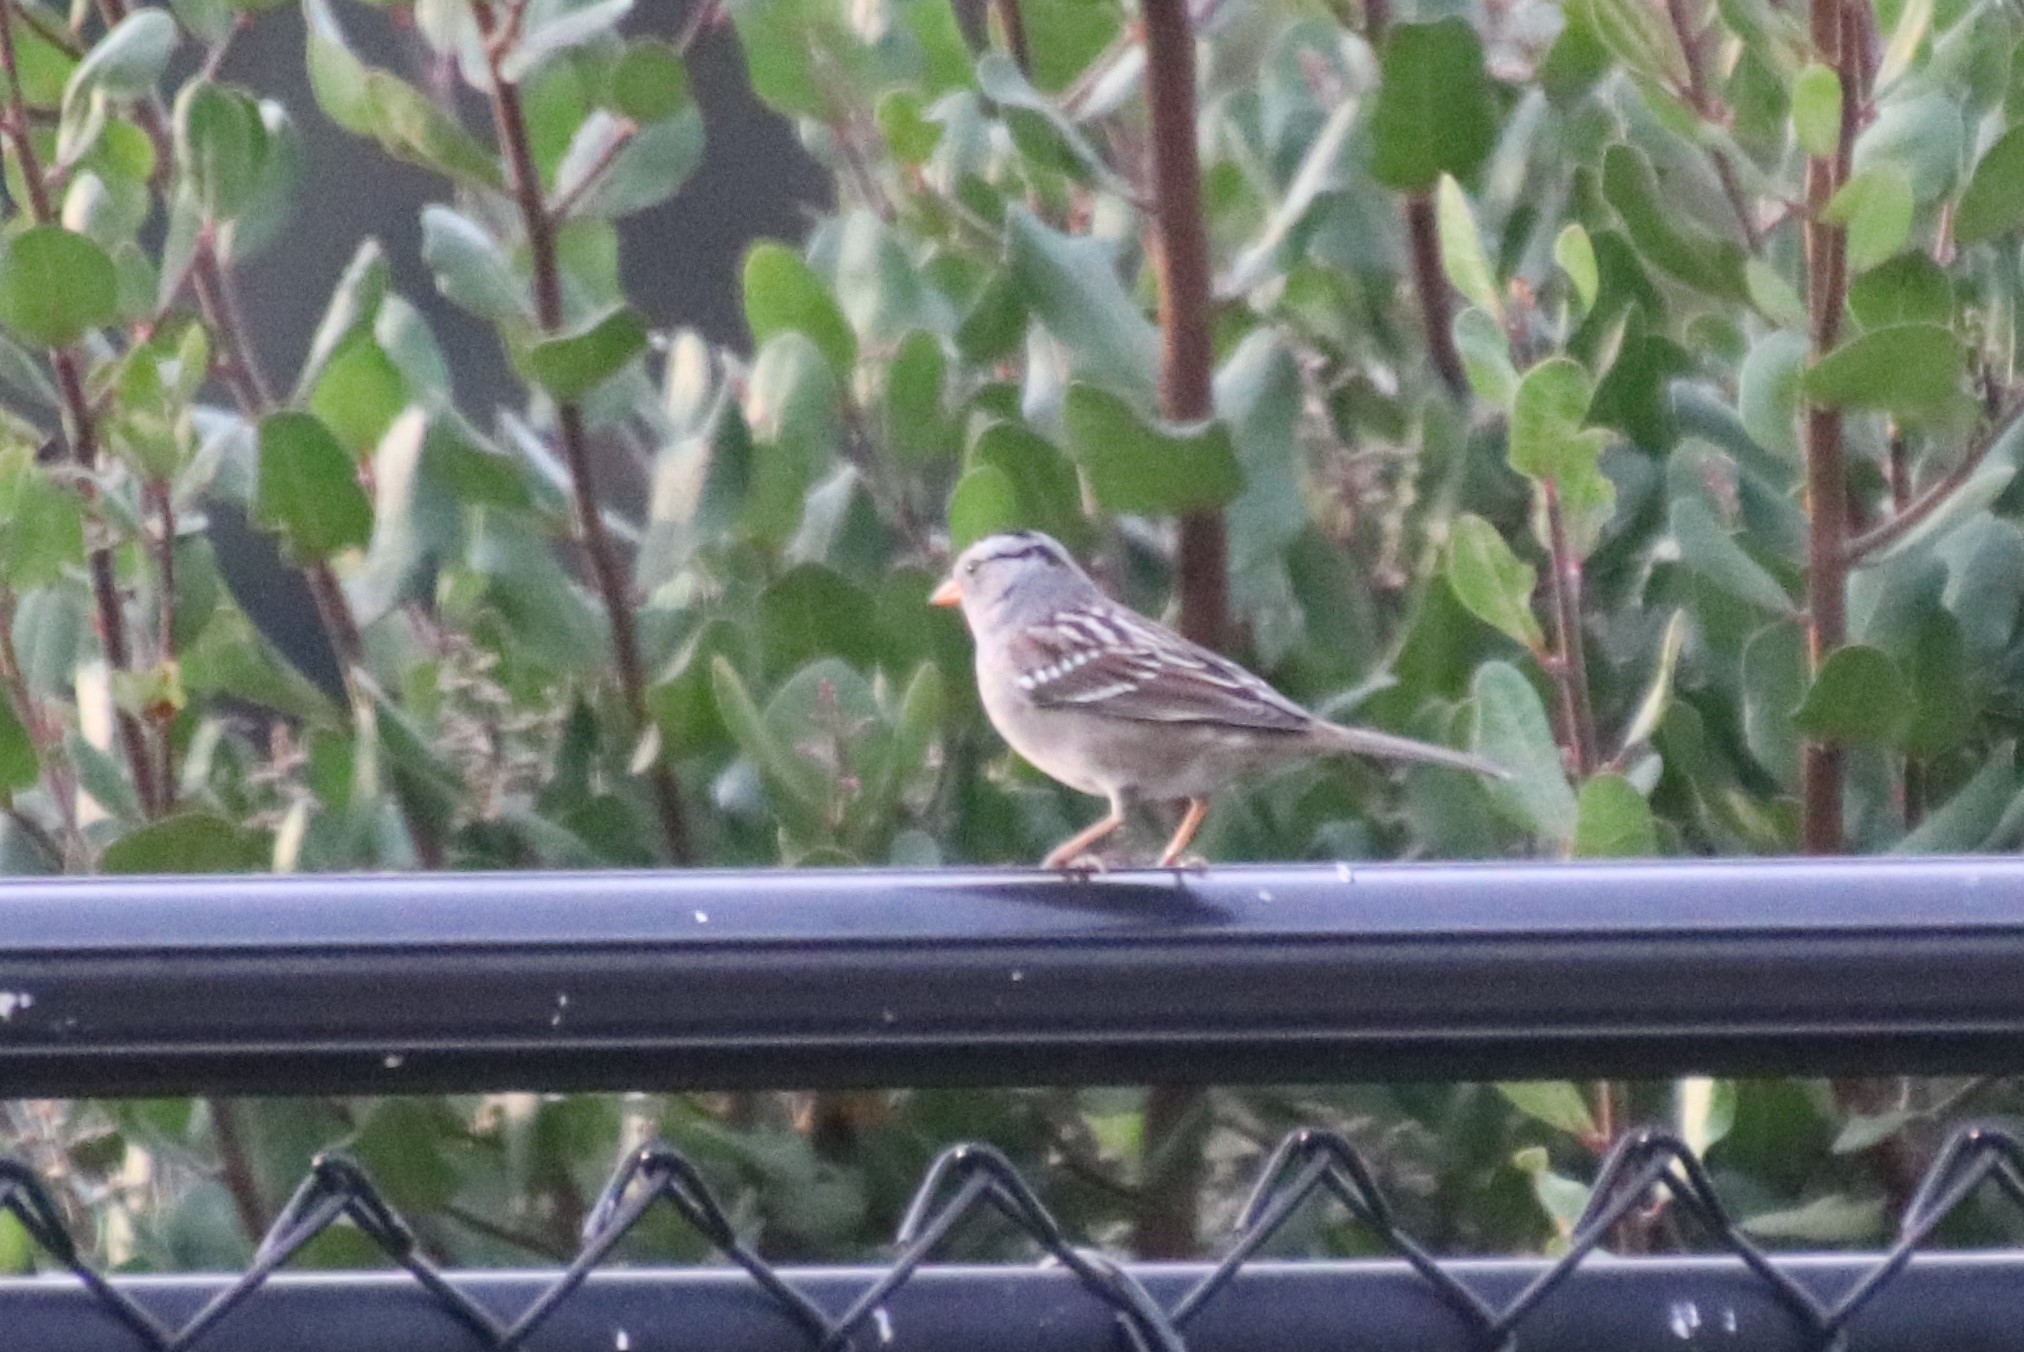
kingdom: Animalia
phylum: Chordata
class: Aves
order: Passeriformes
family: Passerellidae
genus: Zonotrichia
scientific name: Zonotrichia leucophrys
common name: White-crowned sparrow
